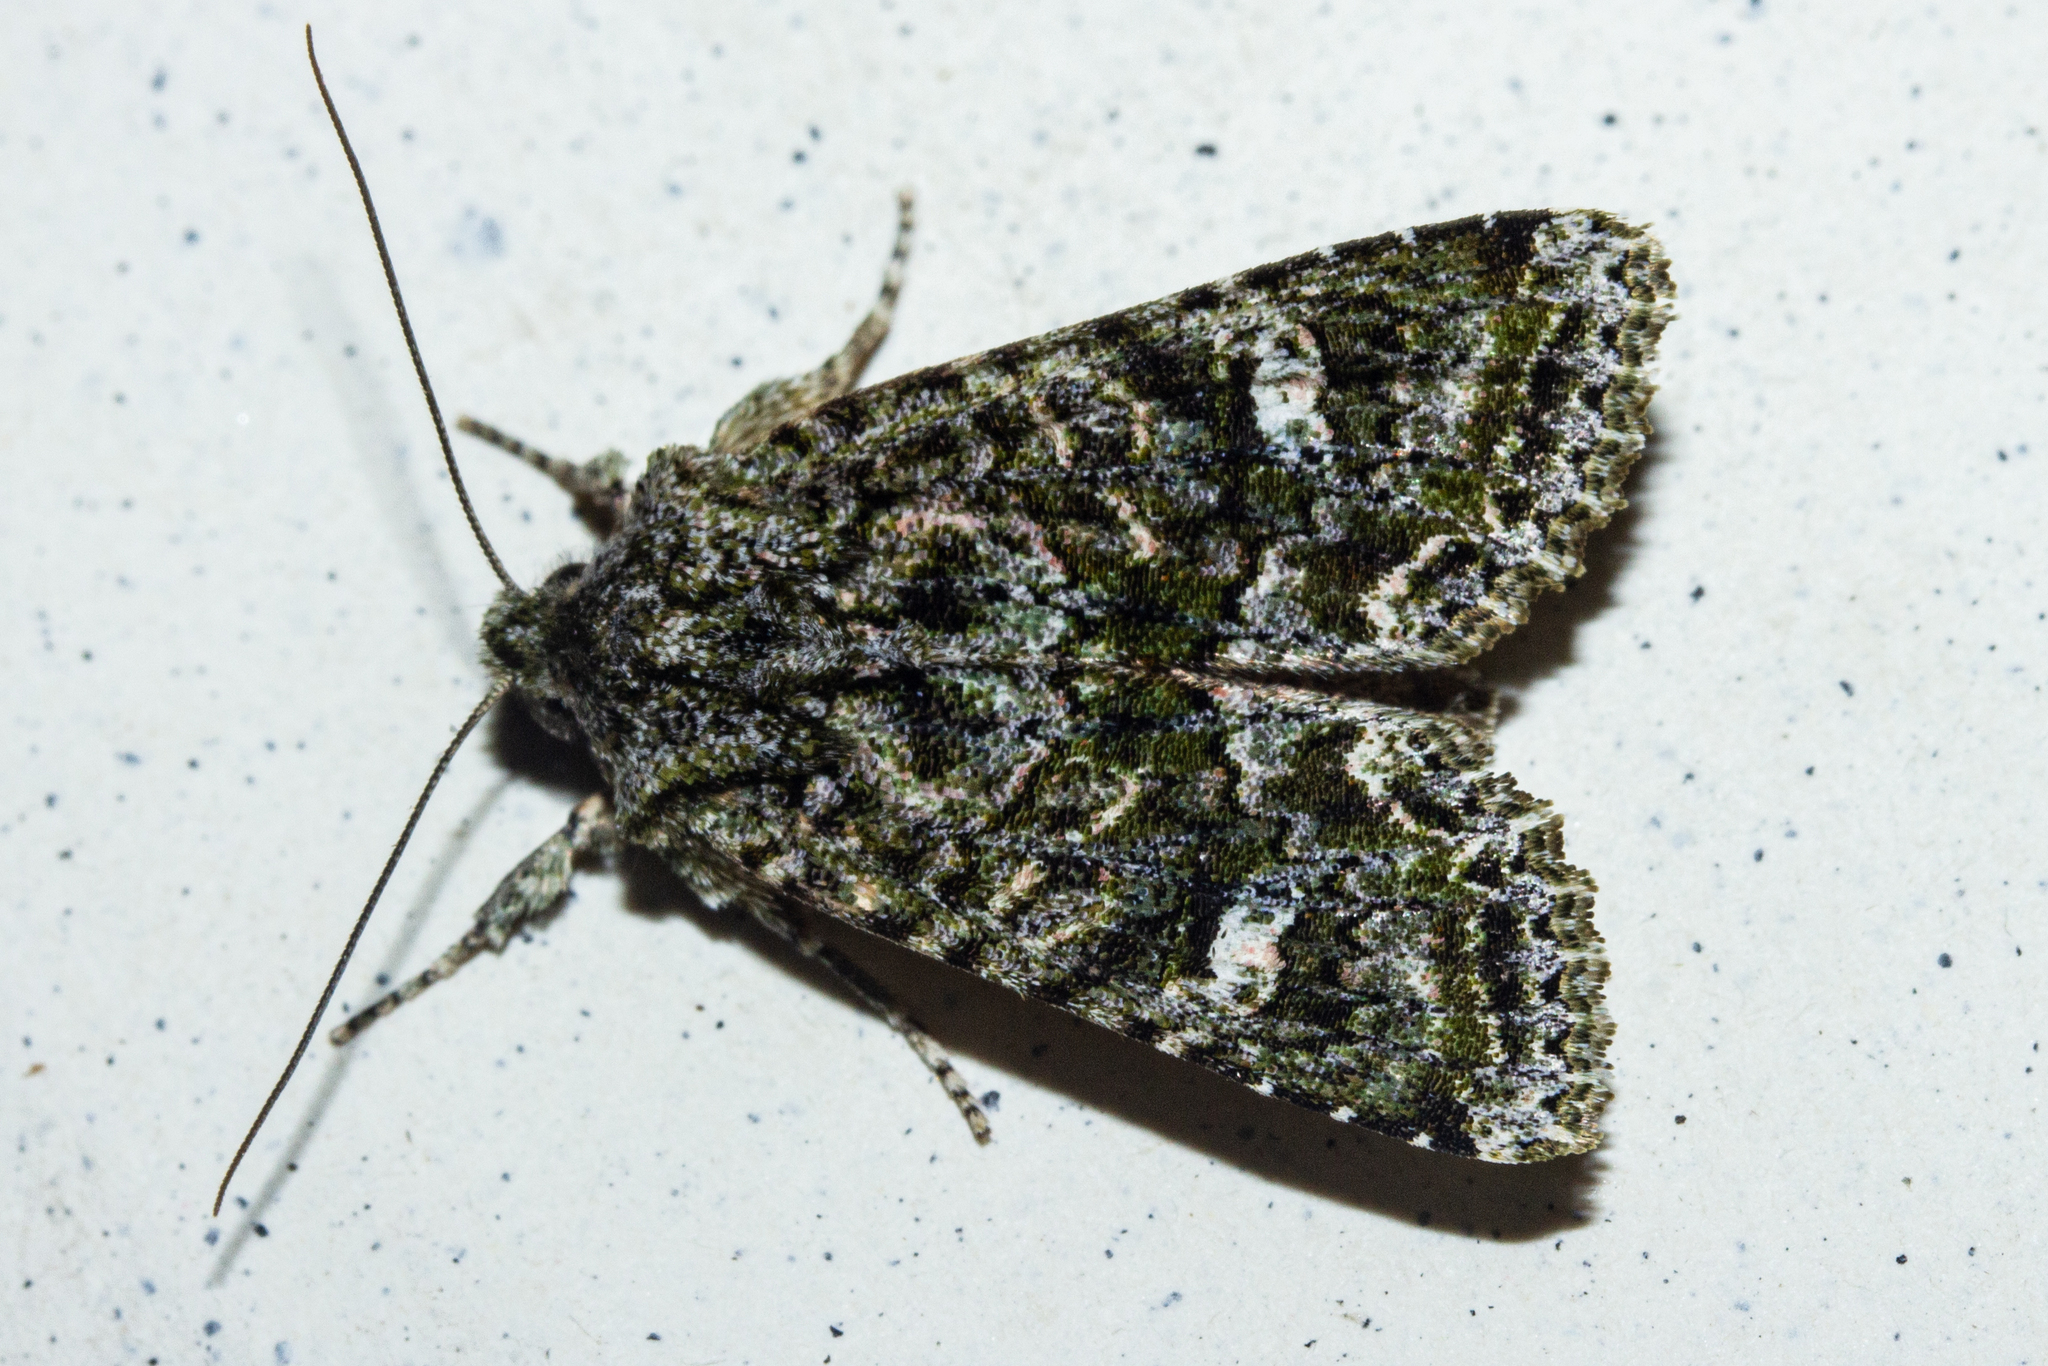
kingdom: Animalia
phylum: Arthropoda
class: Insecta
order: Lepidoptera
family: Noctuidae
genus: Ichneutica
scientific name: Ichneutica
